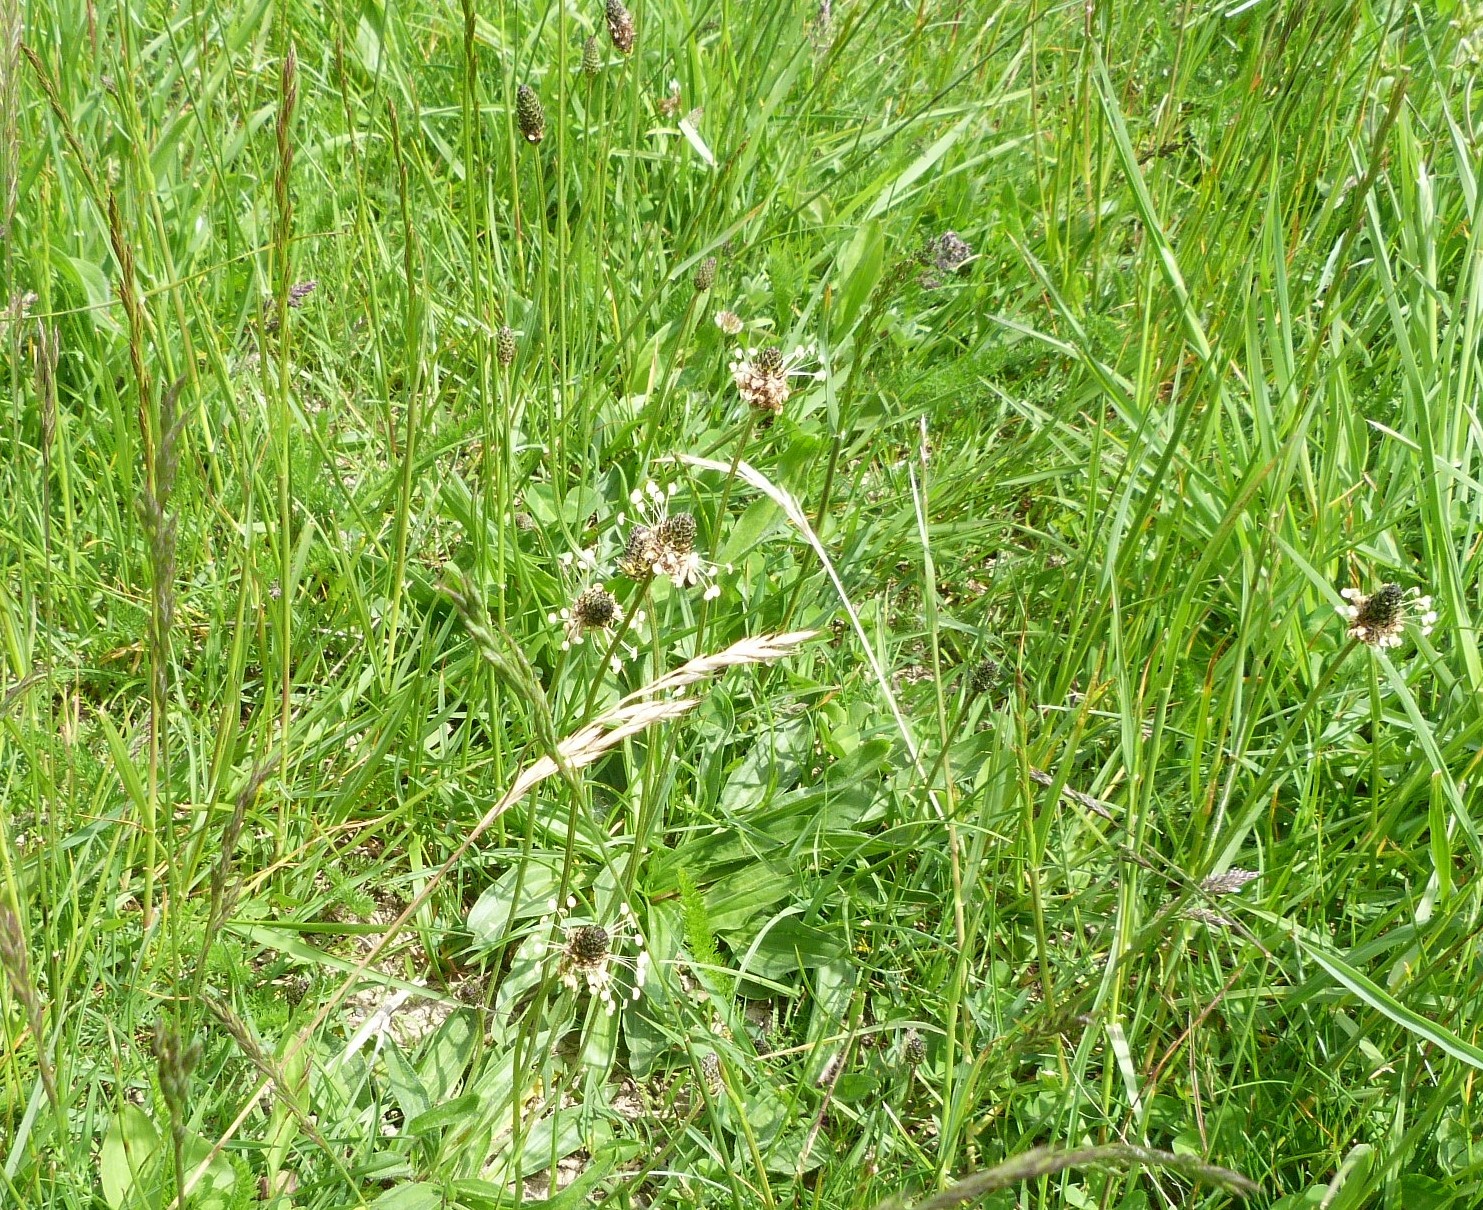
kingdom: Plantae
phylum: Tracheophyta
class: Magnoliopsida
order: Lamiales
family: Plantaginaceae
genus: Plantago
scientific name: Plantago lanceolata
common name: Ribwort plantain
